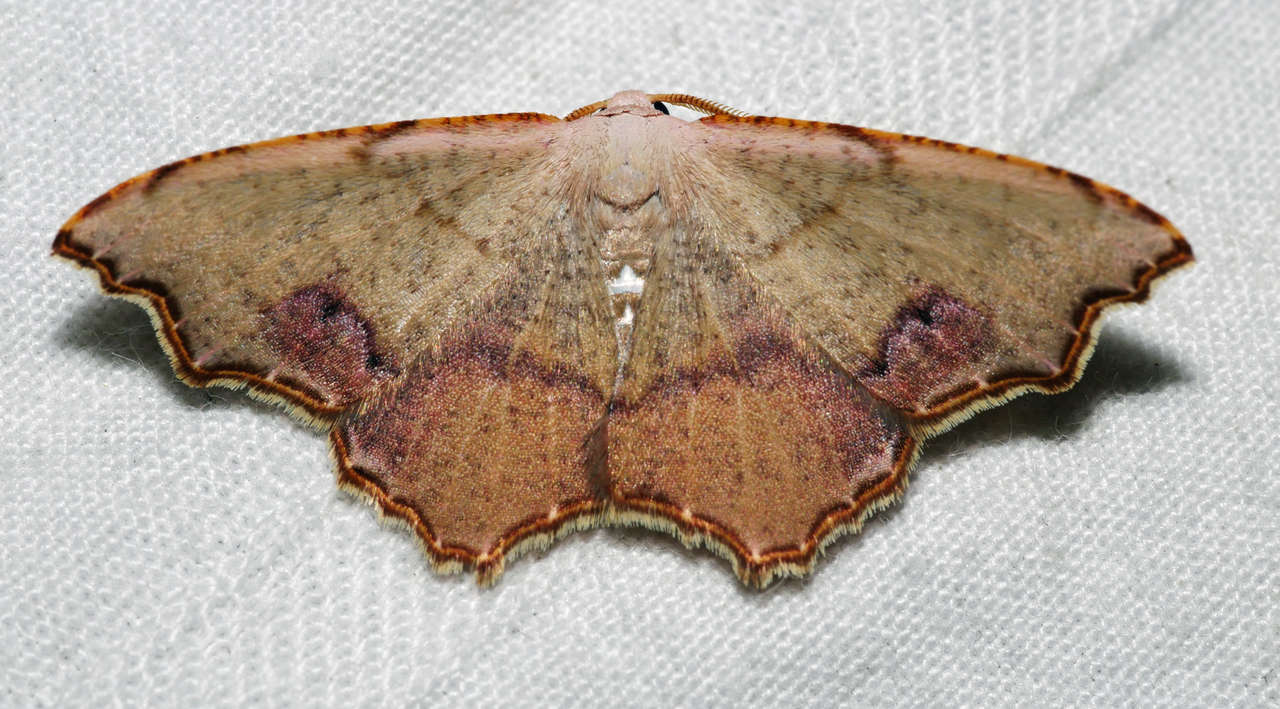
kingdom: Animalia
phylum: Arthropoda
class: Insecta
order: Lepidoptera
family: Geometridae
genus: Epicompsa
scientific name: Epicompsa xanthocrossa
